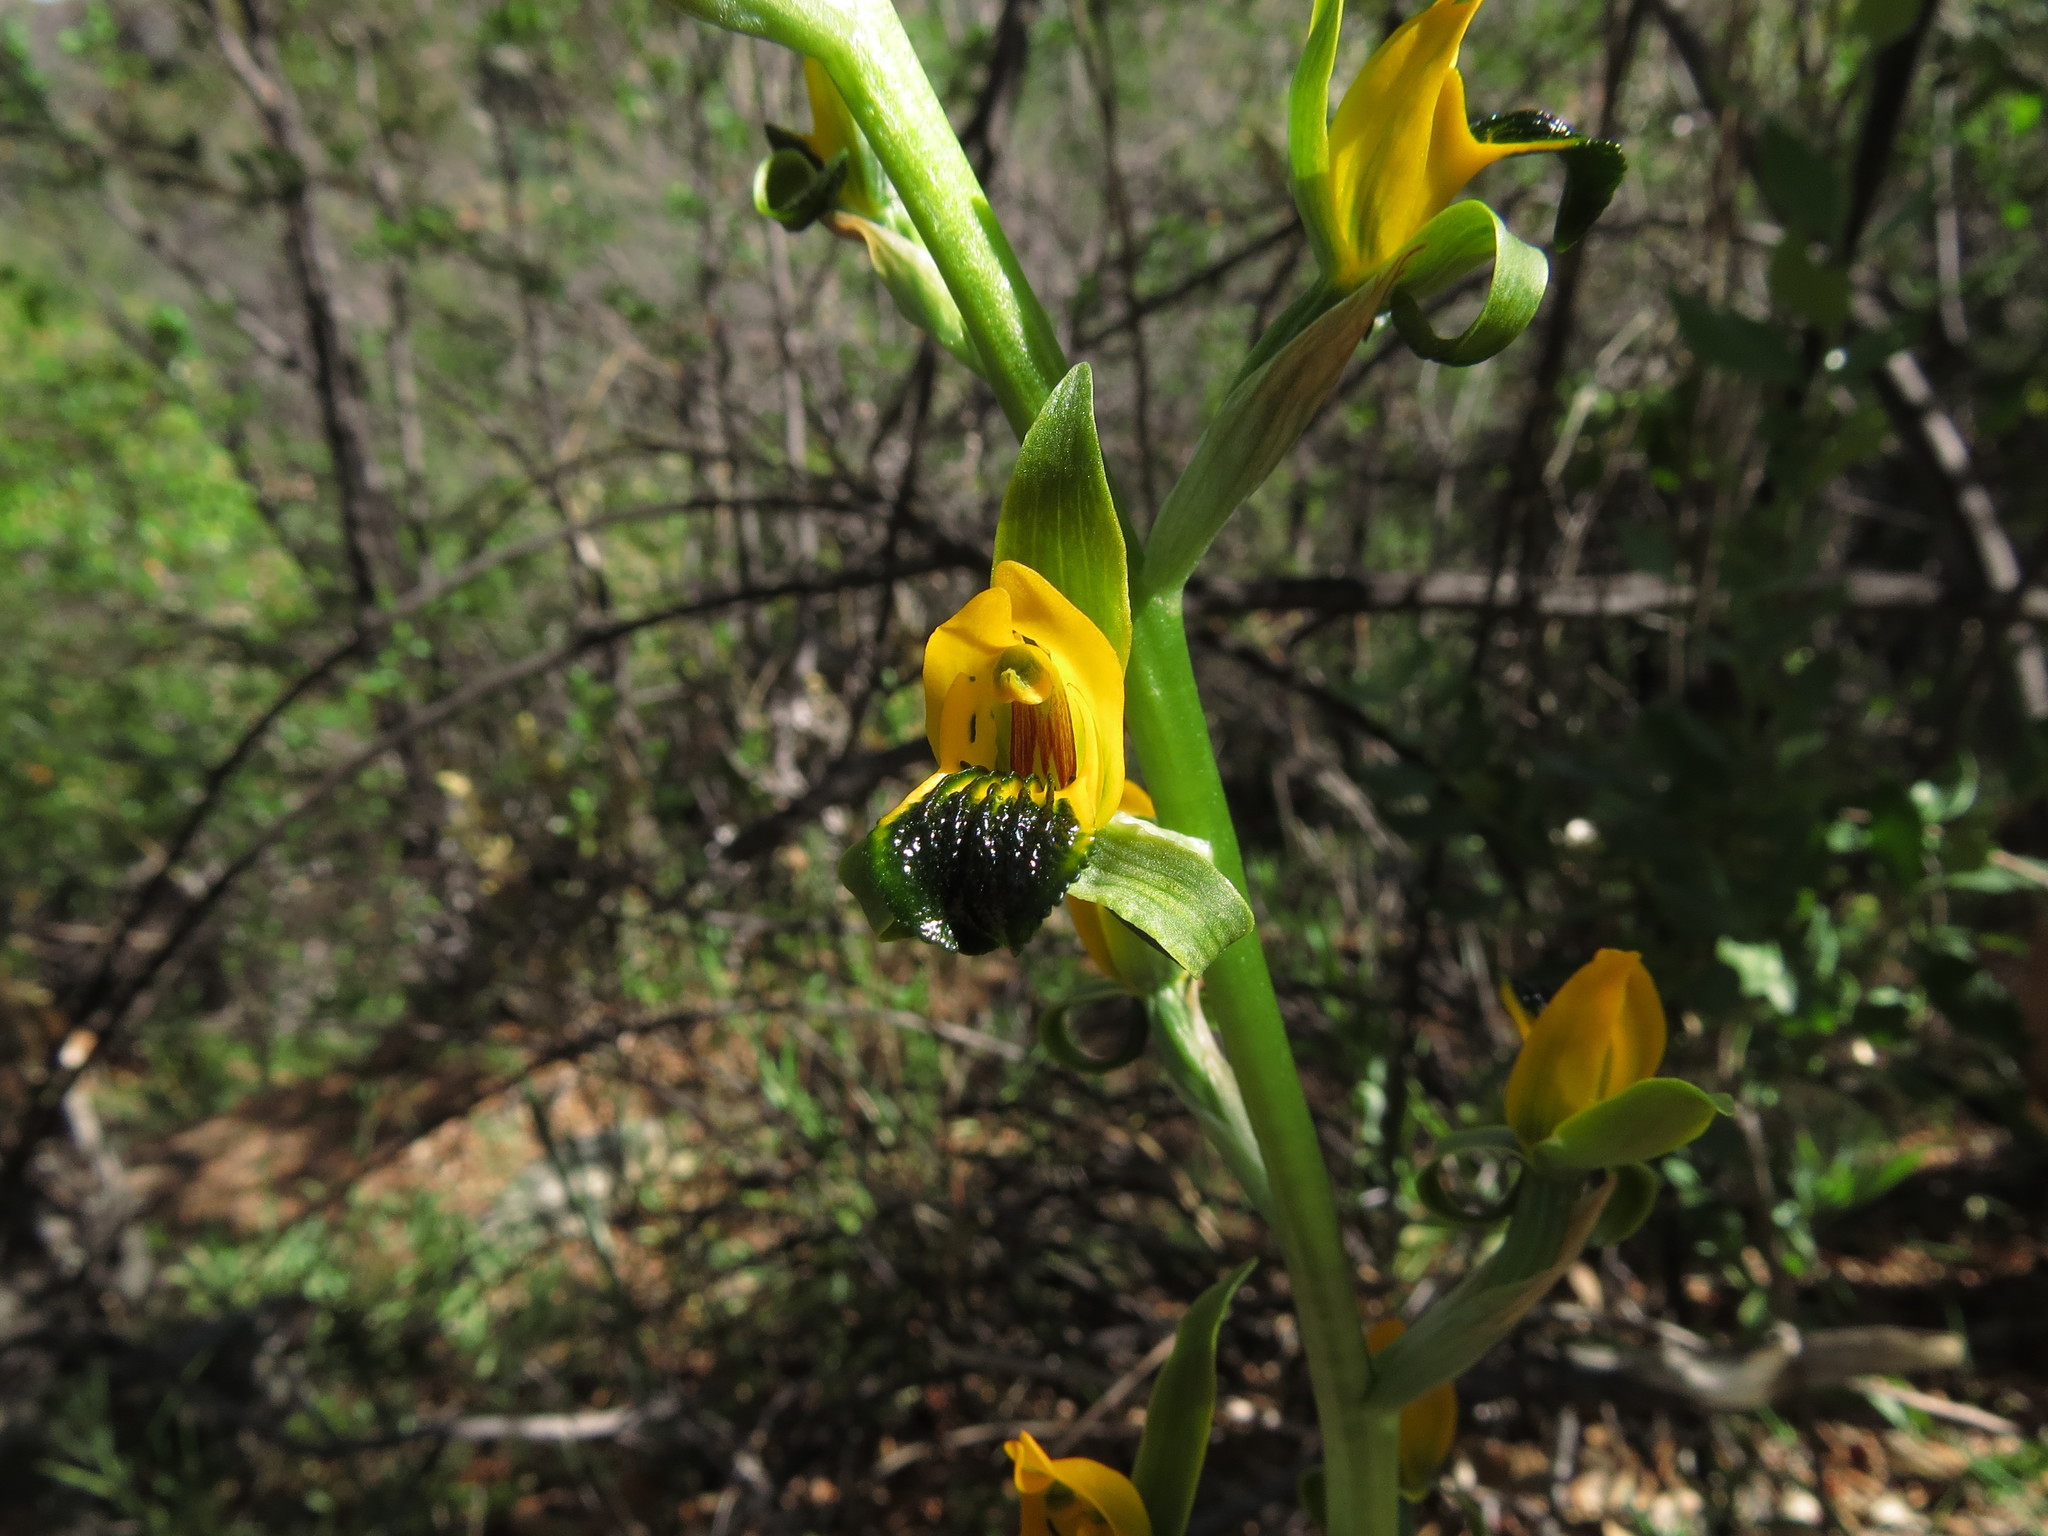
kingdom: Plantae
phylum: Tracheophyta
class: Liliopsida
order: Asparagales
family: Orchidaceae
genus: Chloraea
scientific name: Chloraea disoides
